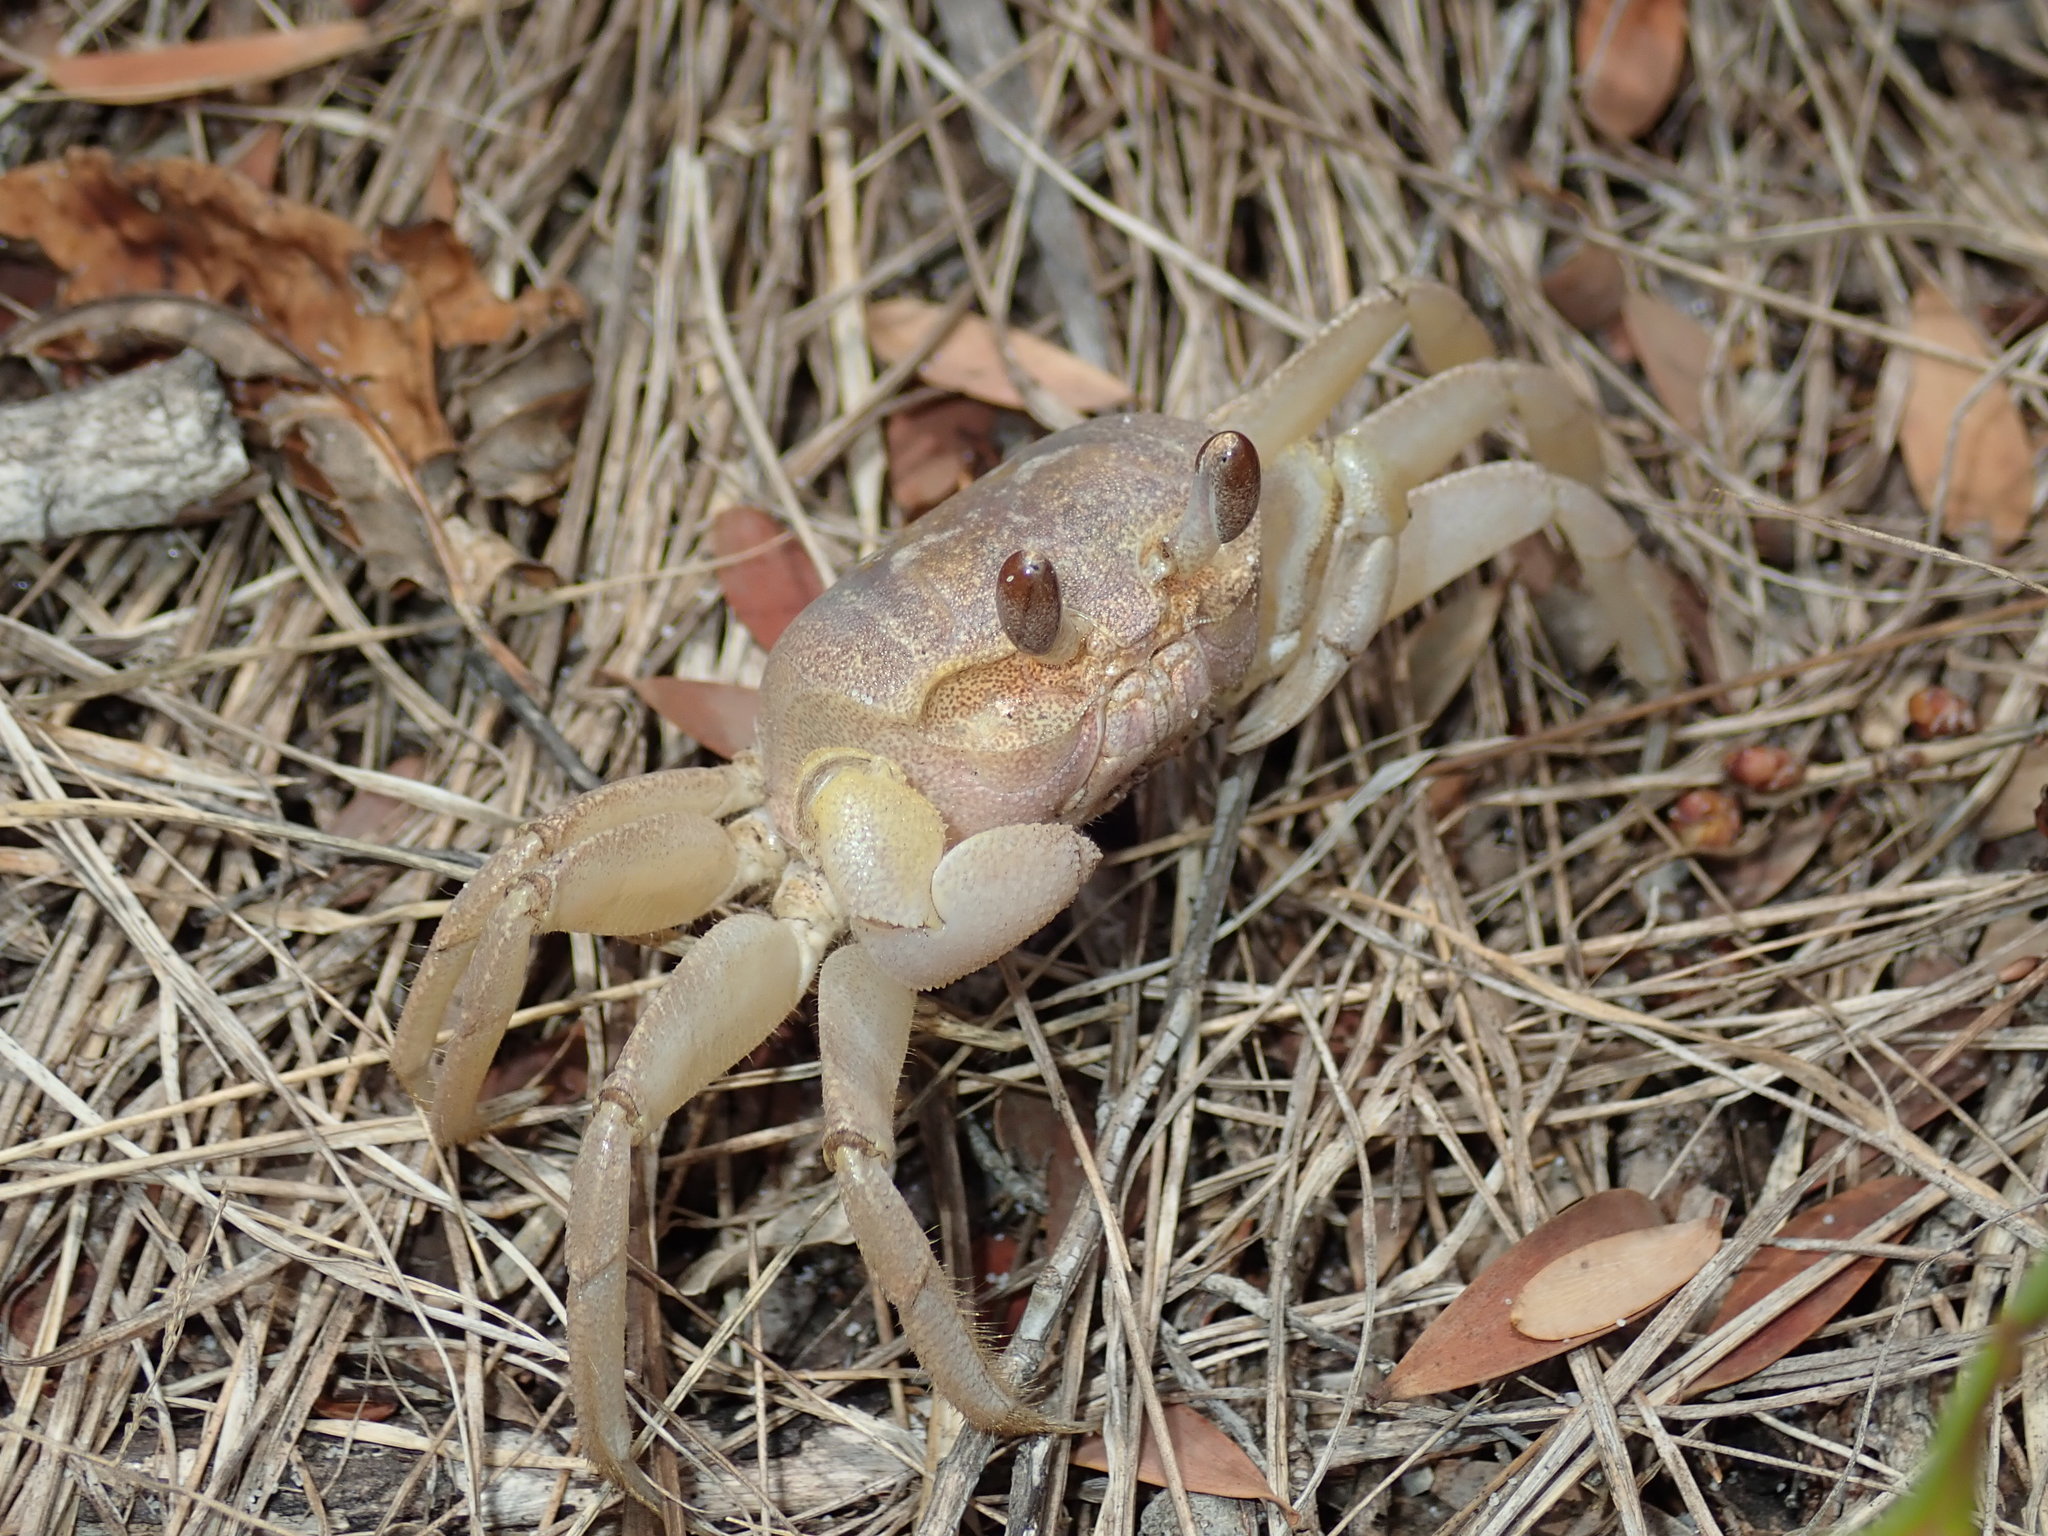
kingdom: Animalia
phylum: Arthropoda
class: Malacostraca
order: Decapoda
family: Ocypodidae
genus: Ocypode
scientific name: Ocypode cordimana
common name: Smooth-eyed ghost crab
